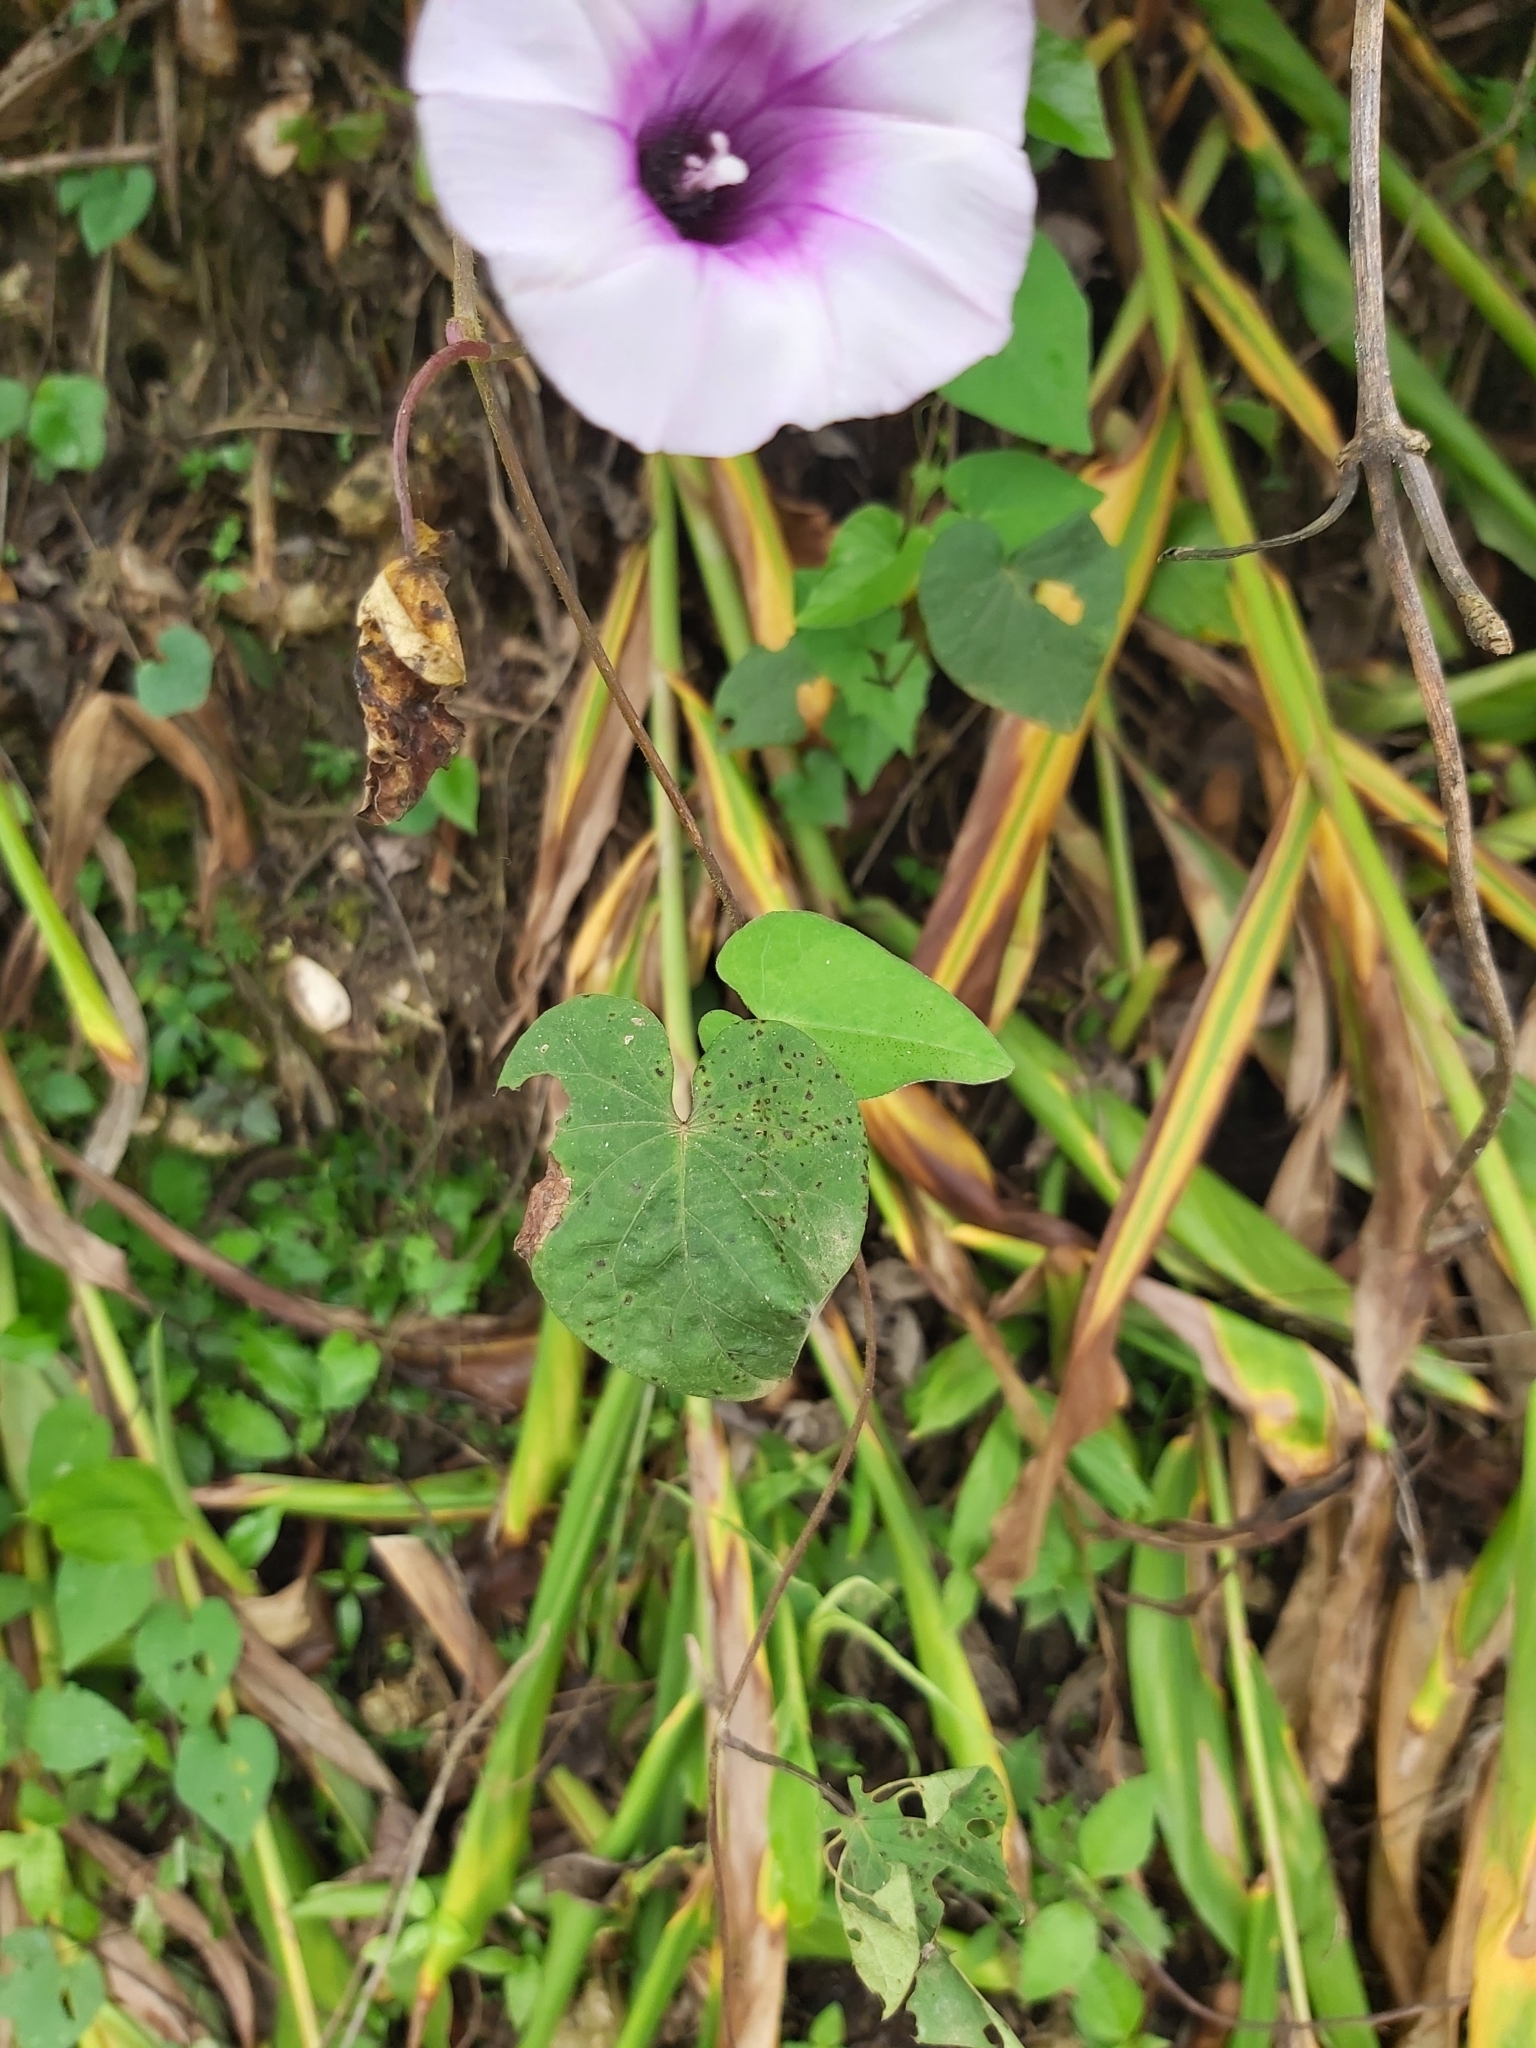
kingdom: Plantae
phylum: Tracheophyta
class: Magnoliopsida
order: Solanales
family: Convolvulaceae
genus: Ipomoea
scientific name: Ipomoea batatas
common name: Sweet-potato
